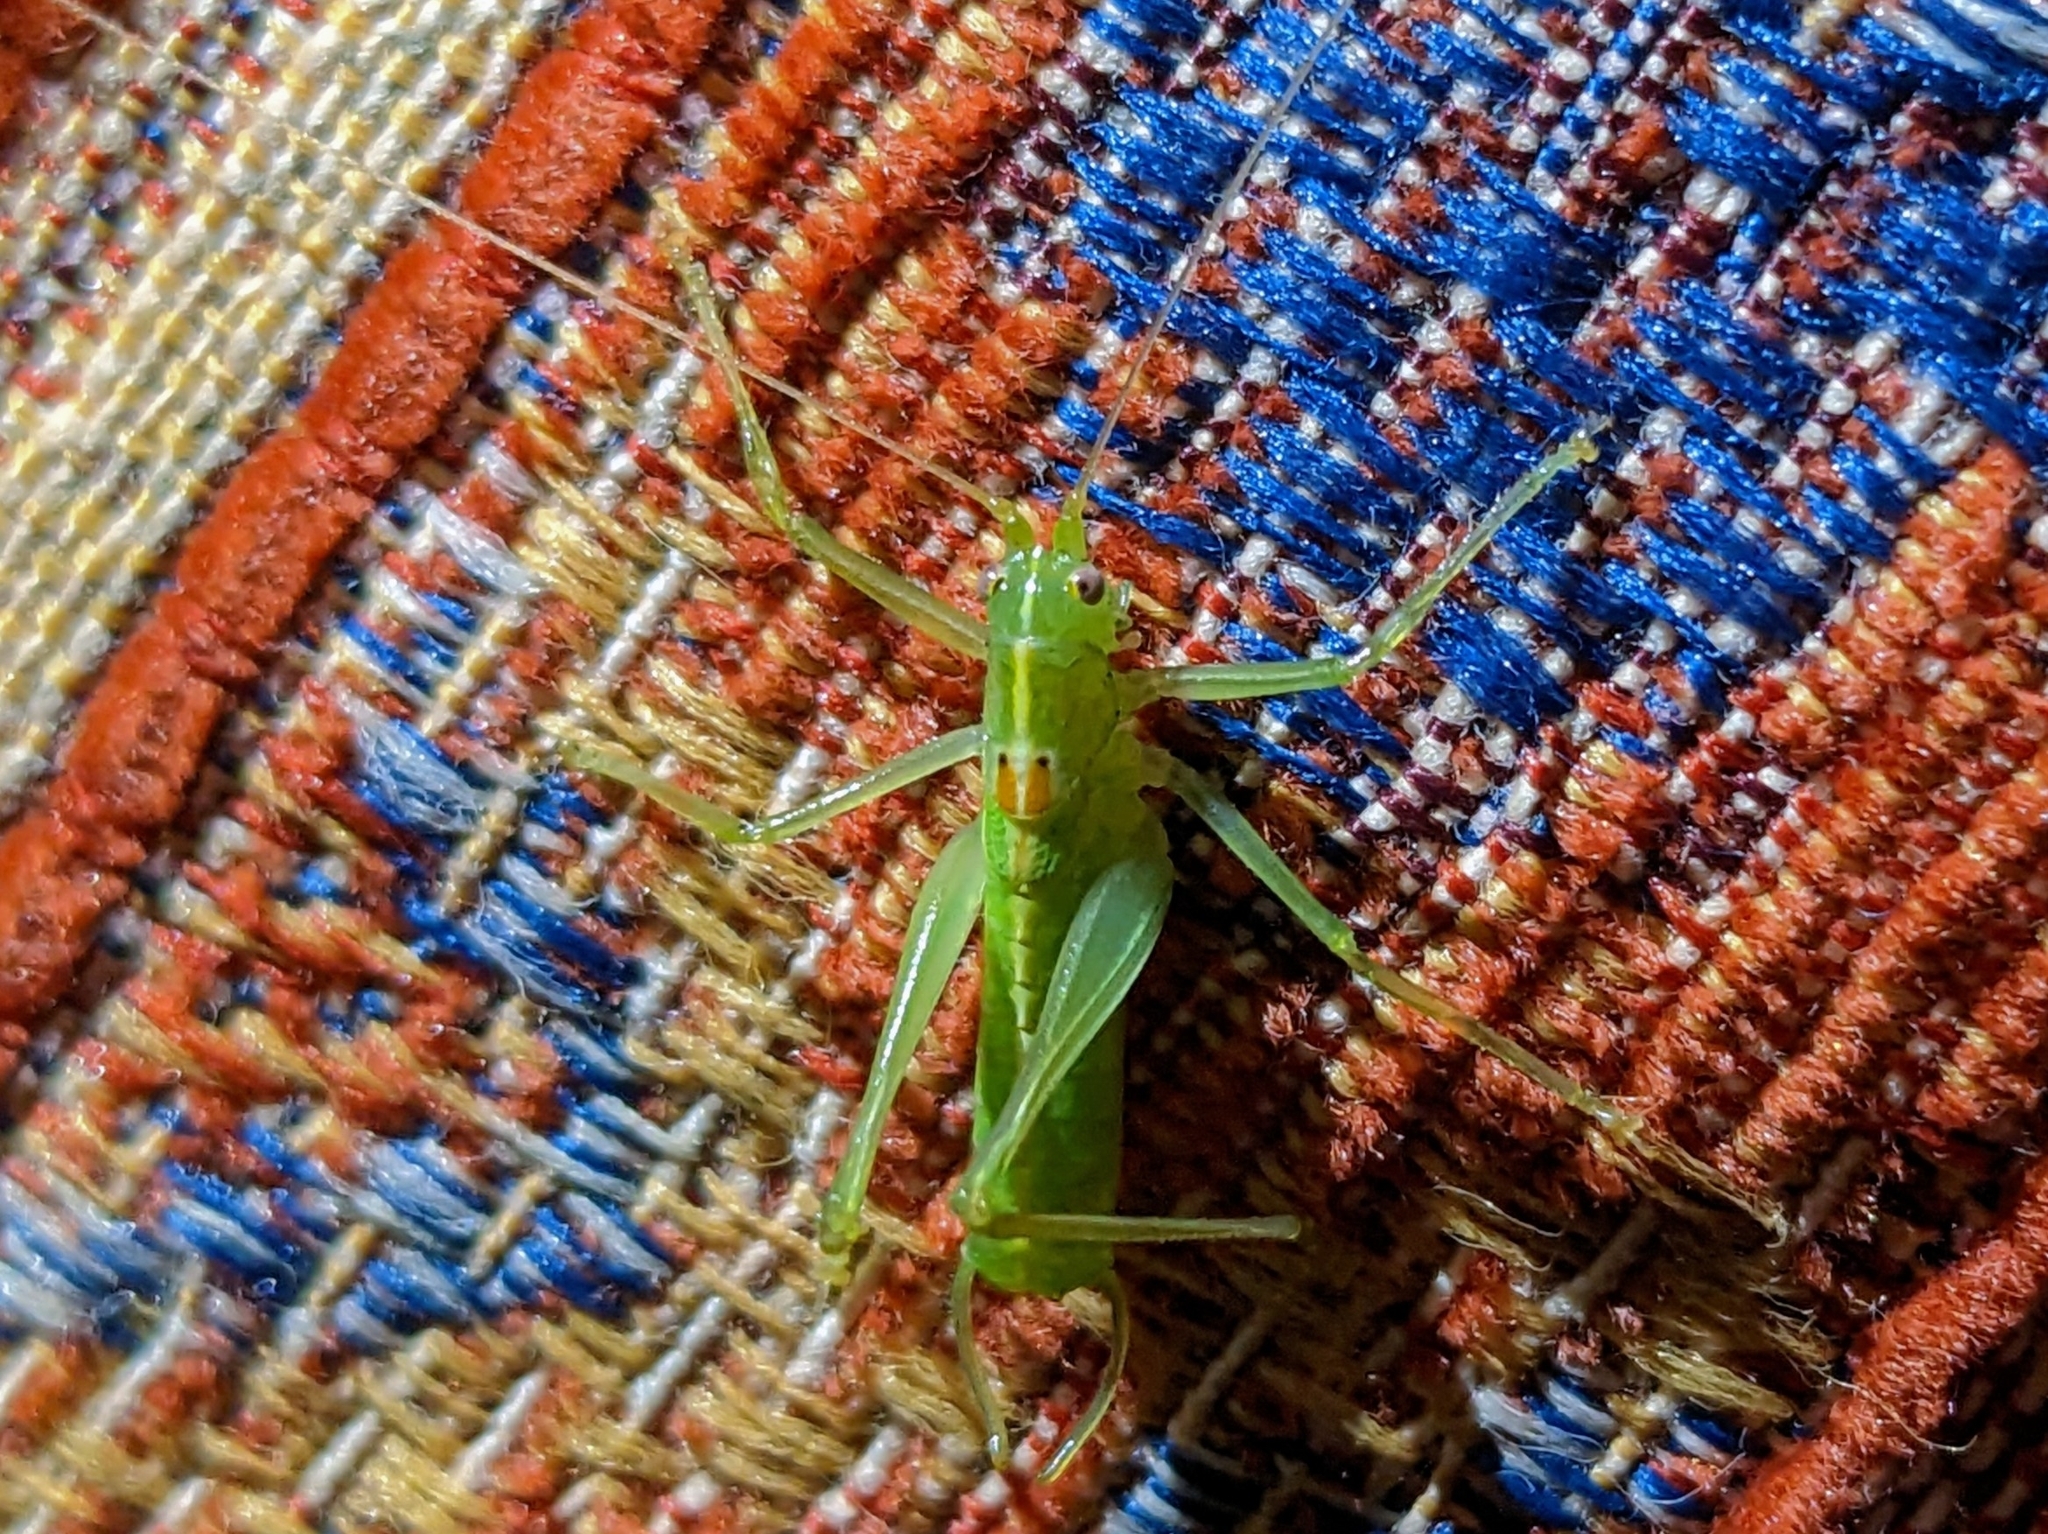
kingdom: Animalia
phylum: Arthropoda
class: Insecta
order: Orthoptera
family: Tettigoniidae
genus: Meconema
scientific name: Meconema meridionale
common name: Southern oak bush-cricket
